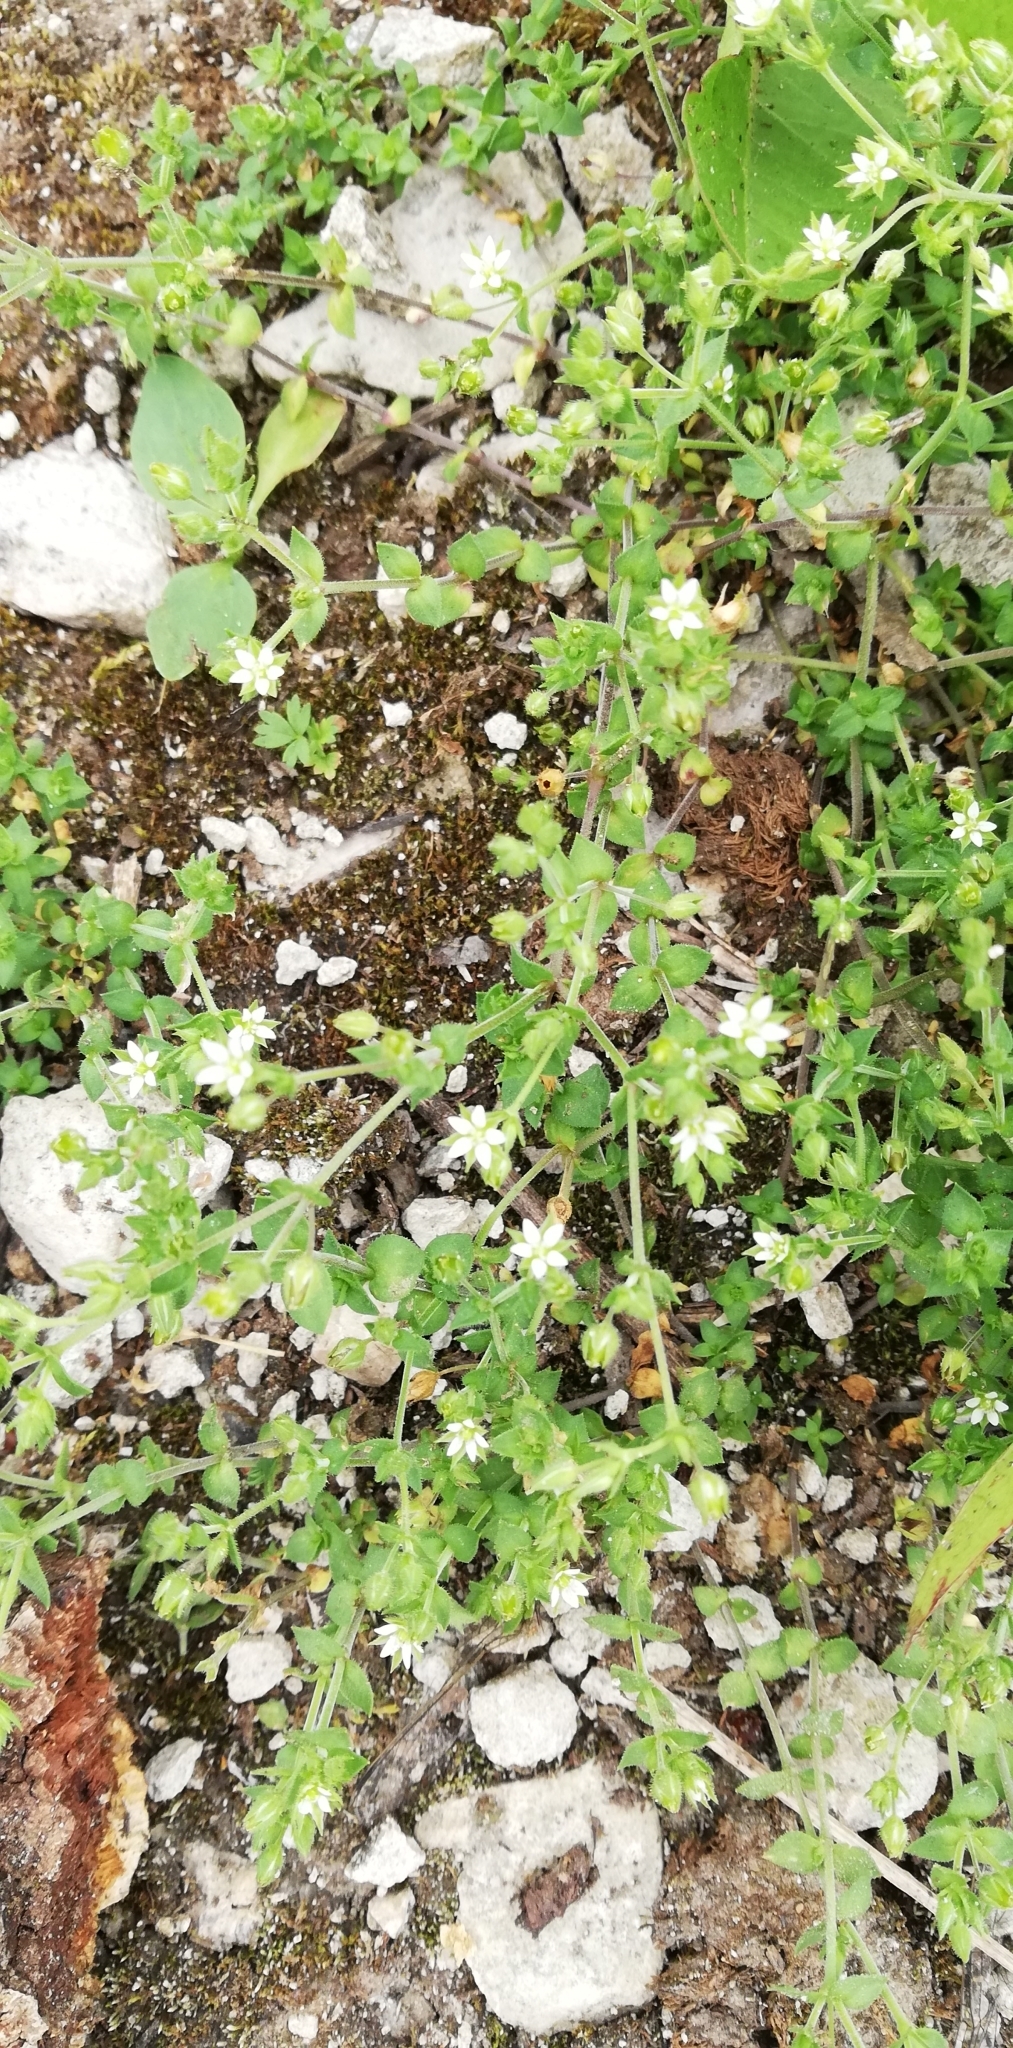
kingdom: Plantae
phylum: Tracheophyta
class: Magnoliopsida
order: Caryophyllales
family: Caryophyllaceae
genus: Arenaria
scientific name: Arenaria serpyllifolia
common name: Thyme-leaved sandwort
